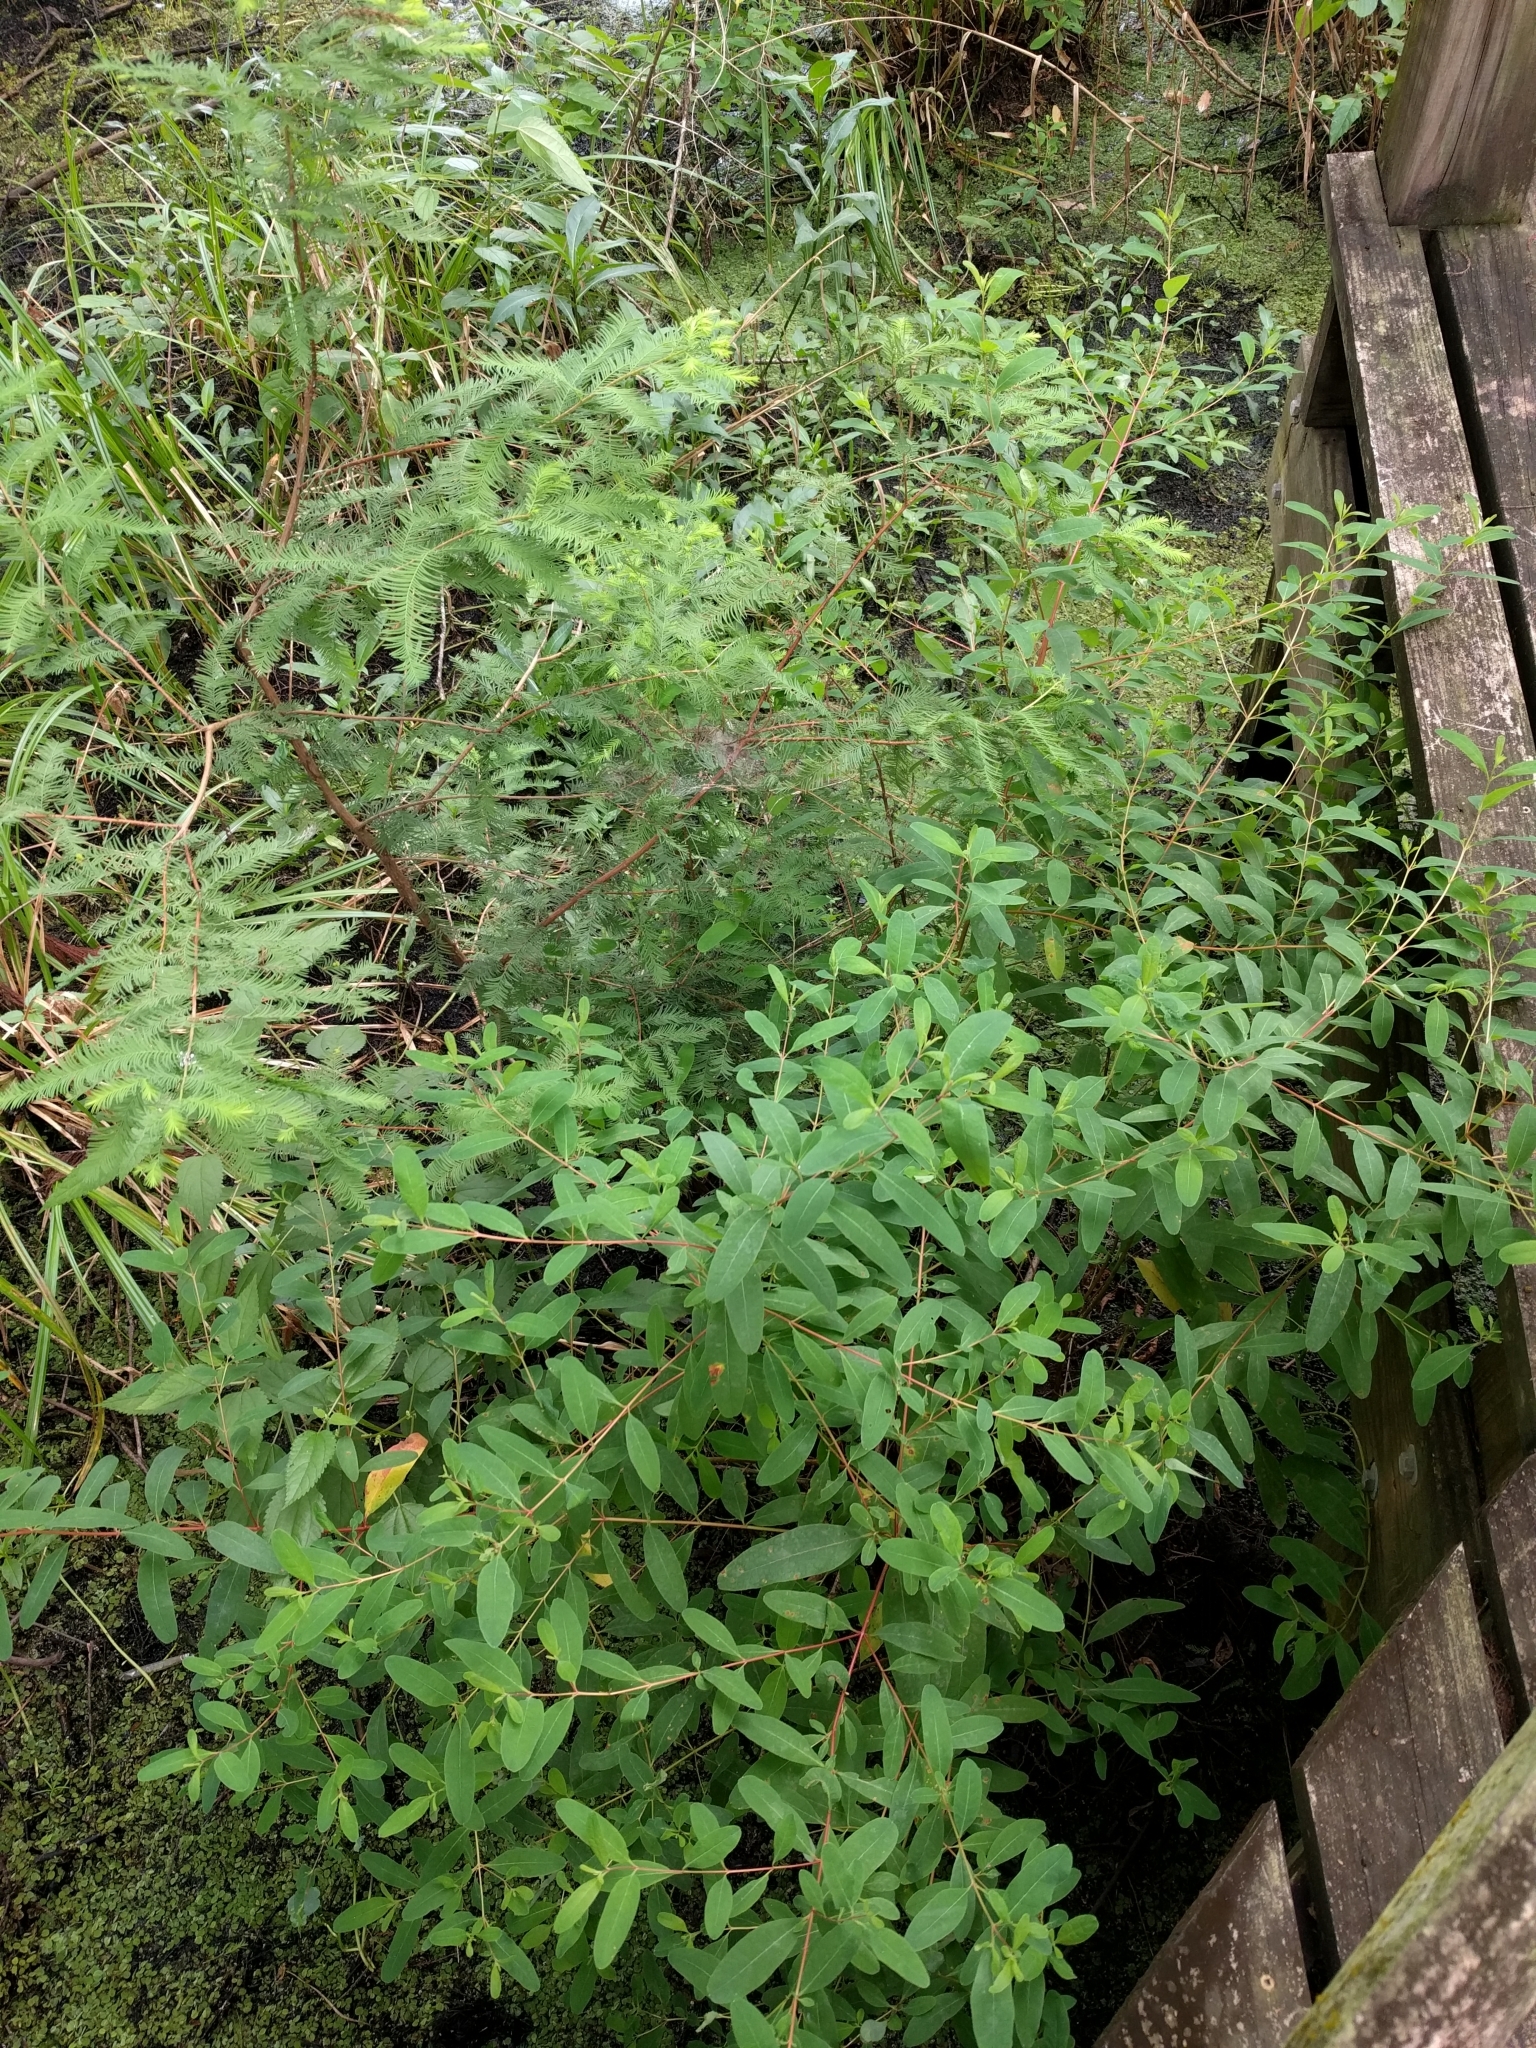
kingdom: Plantae
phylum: Tracheophyta
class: Magnoliopsida
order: Malpighiales
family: Hypericaceae
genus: Triadenum
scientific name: Triadenum walteri
